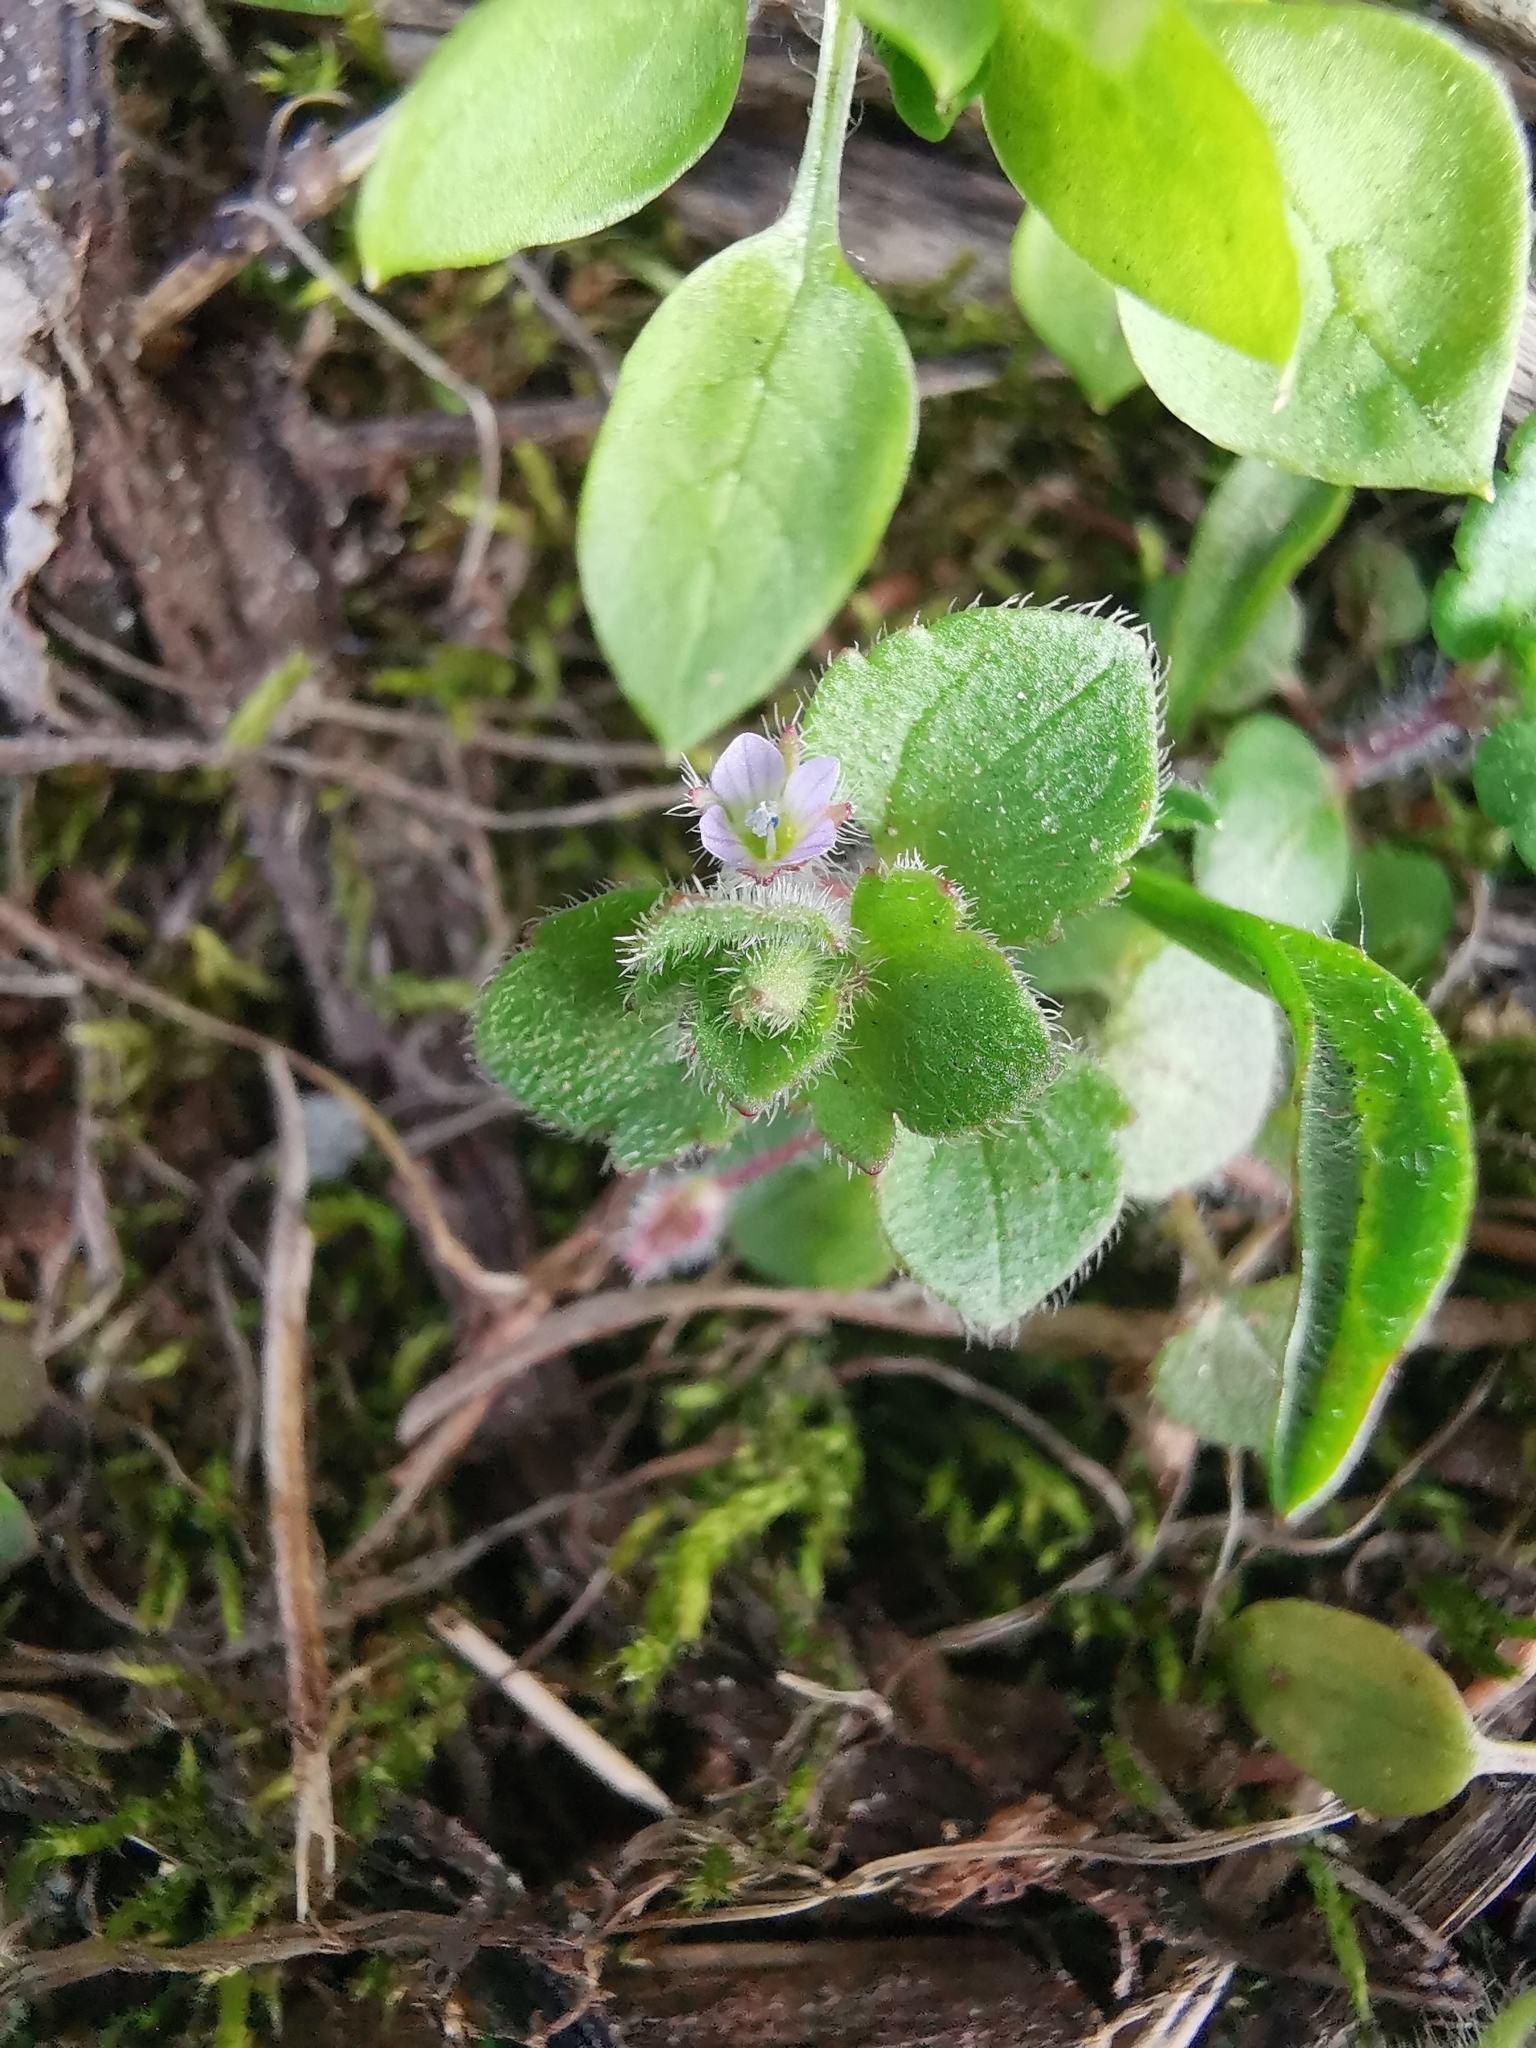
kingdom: Plantae
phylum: Tracheophyta
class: Magnoliopsida
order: Lamiales
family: Plantaginaceae
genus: Veronica
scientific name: Veronica sublobata
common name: False ivy-leaved speedwell
